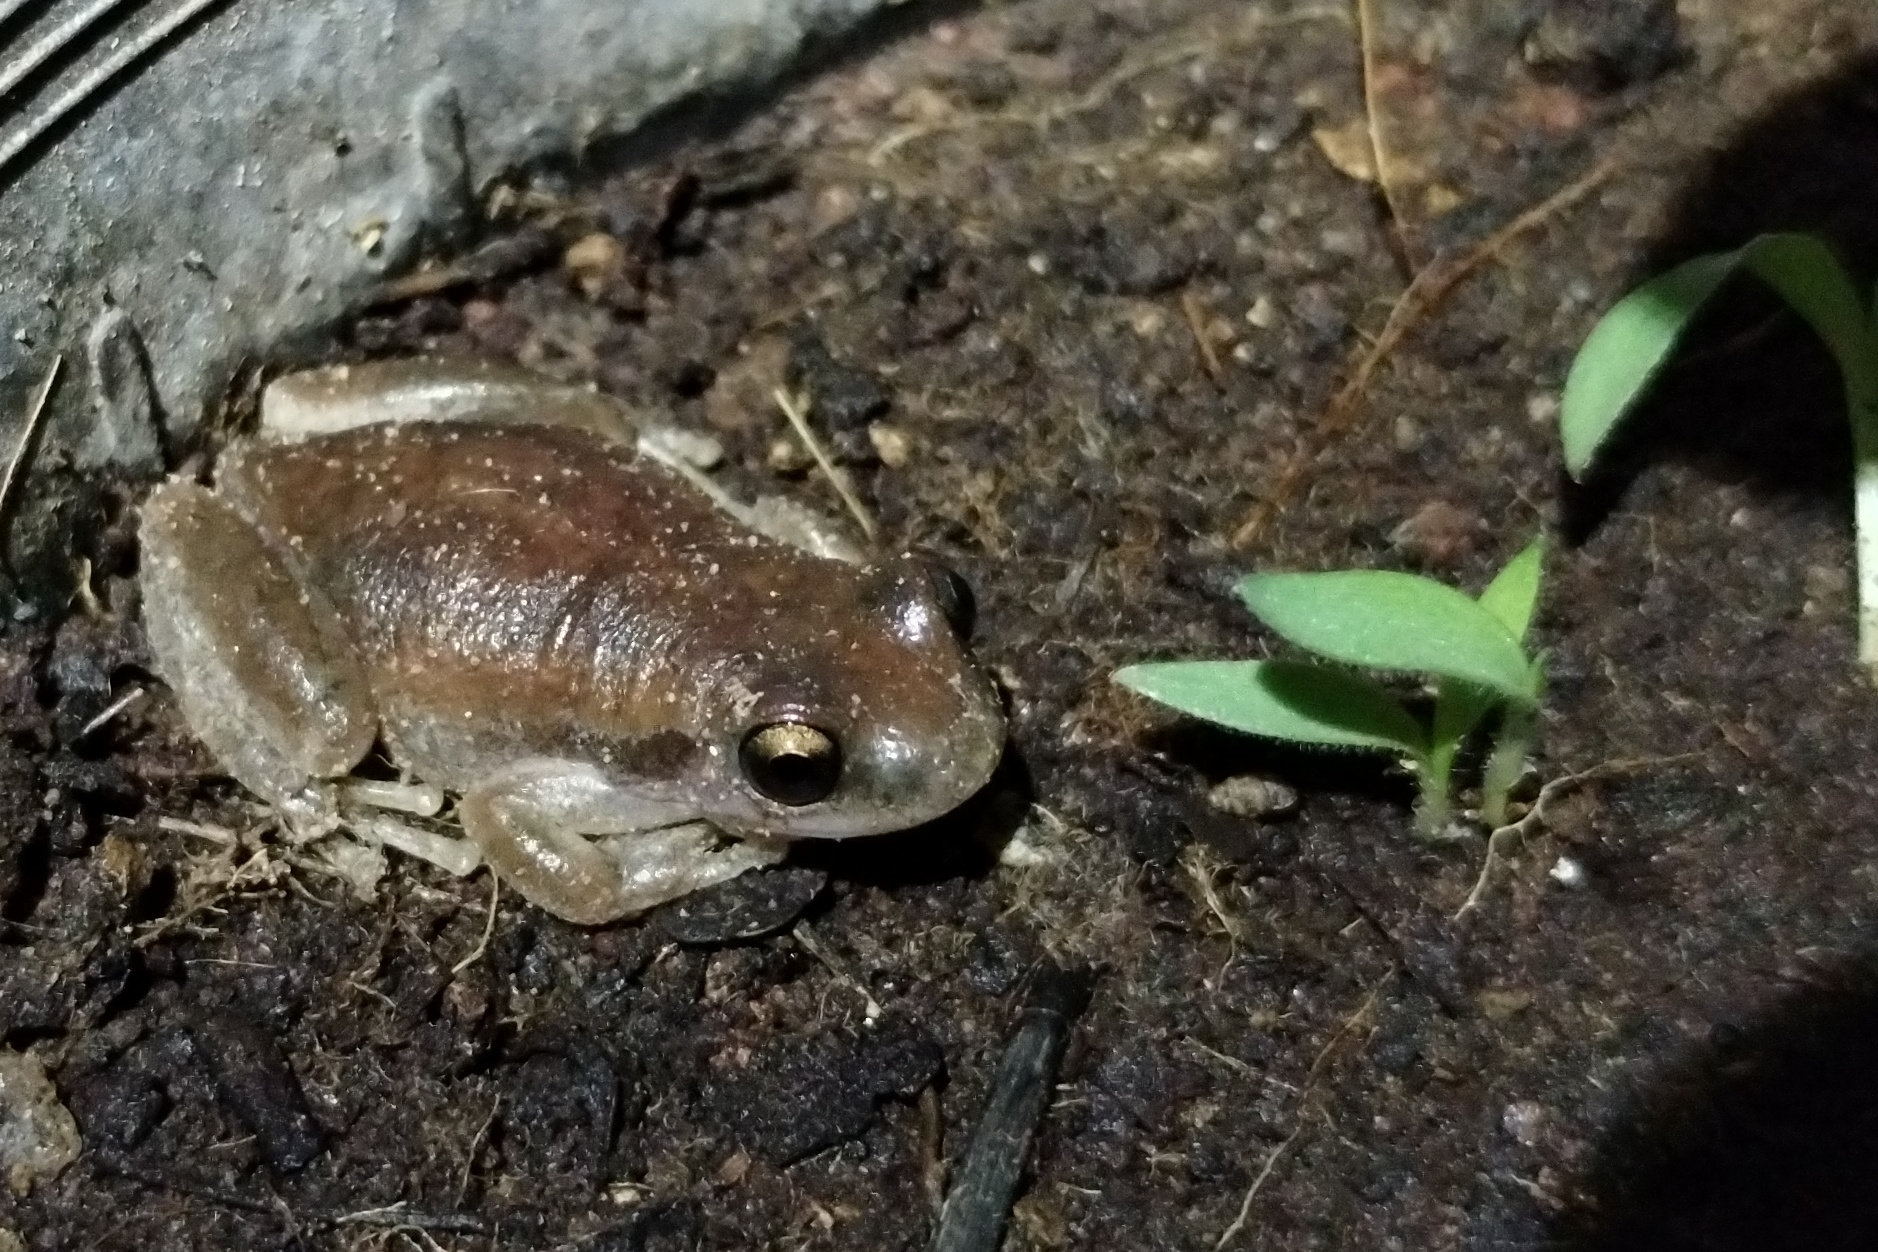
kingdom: Animalia
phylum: Chordata
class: Amphibia
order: Anura
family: Pelodryadidae
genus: Litoria
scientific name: Litoria rubella
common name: Desert tree frog
